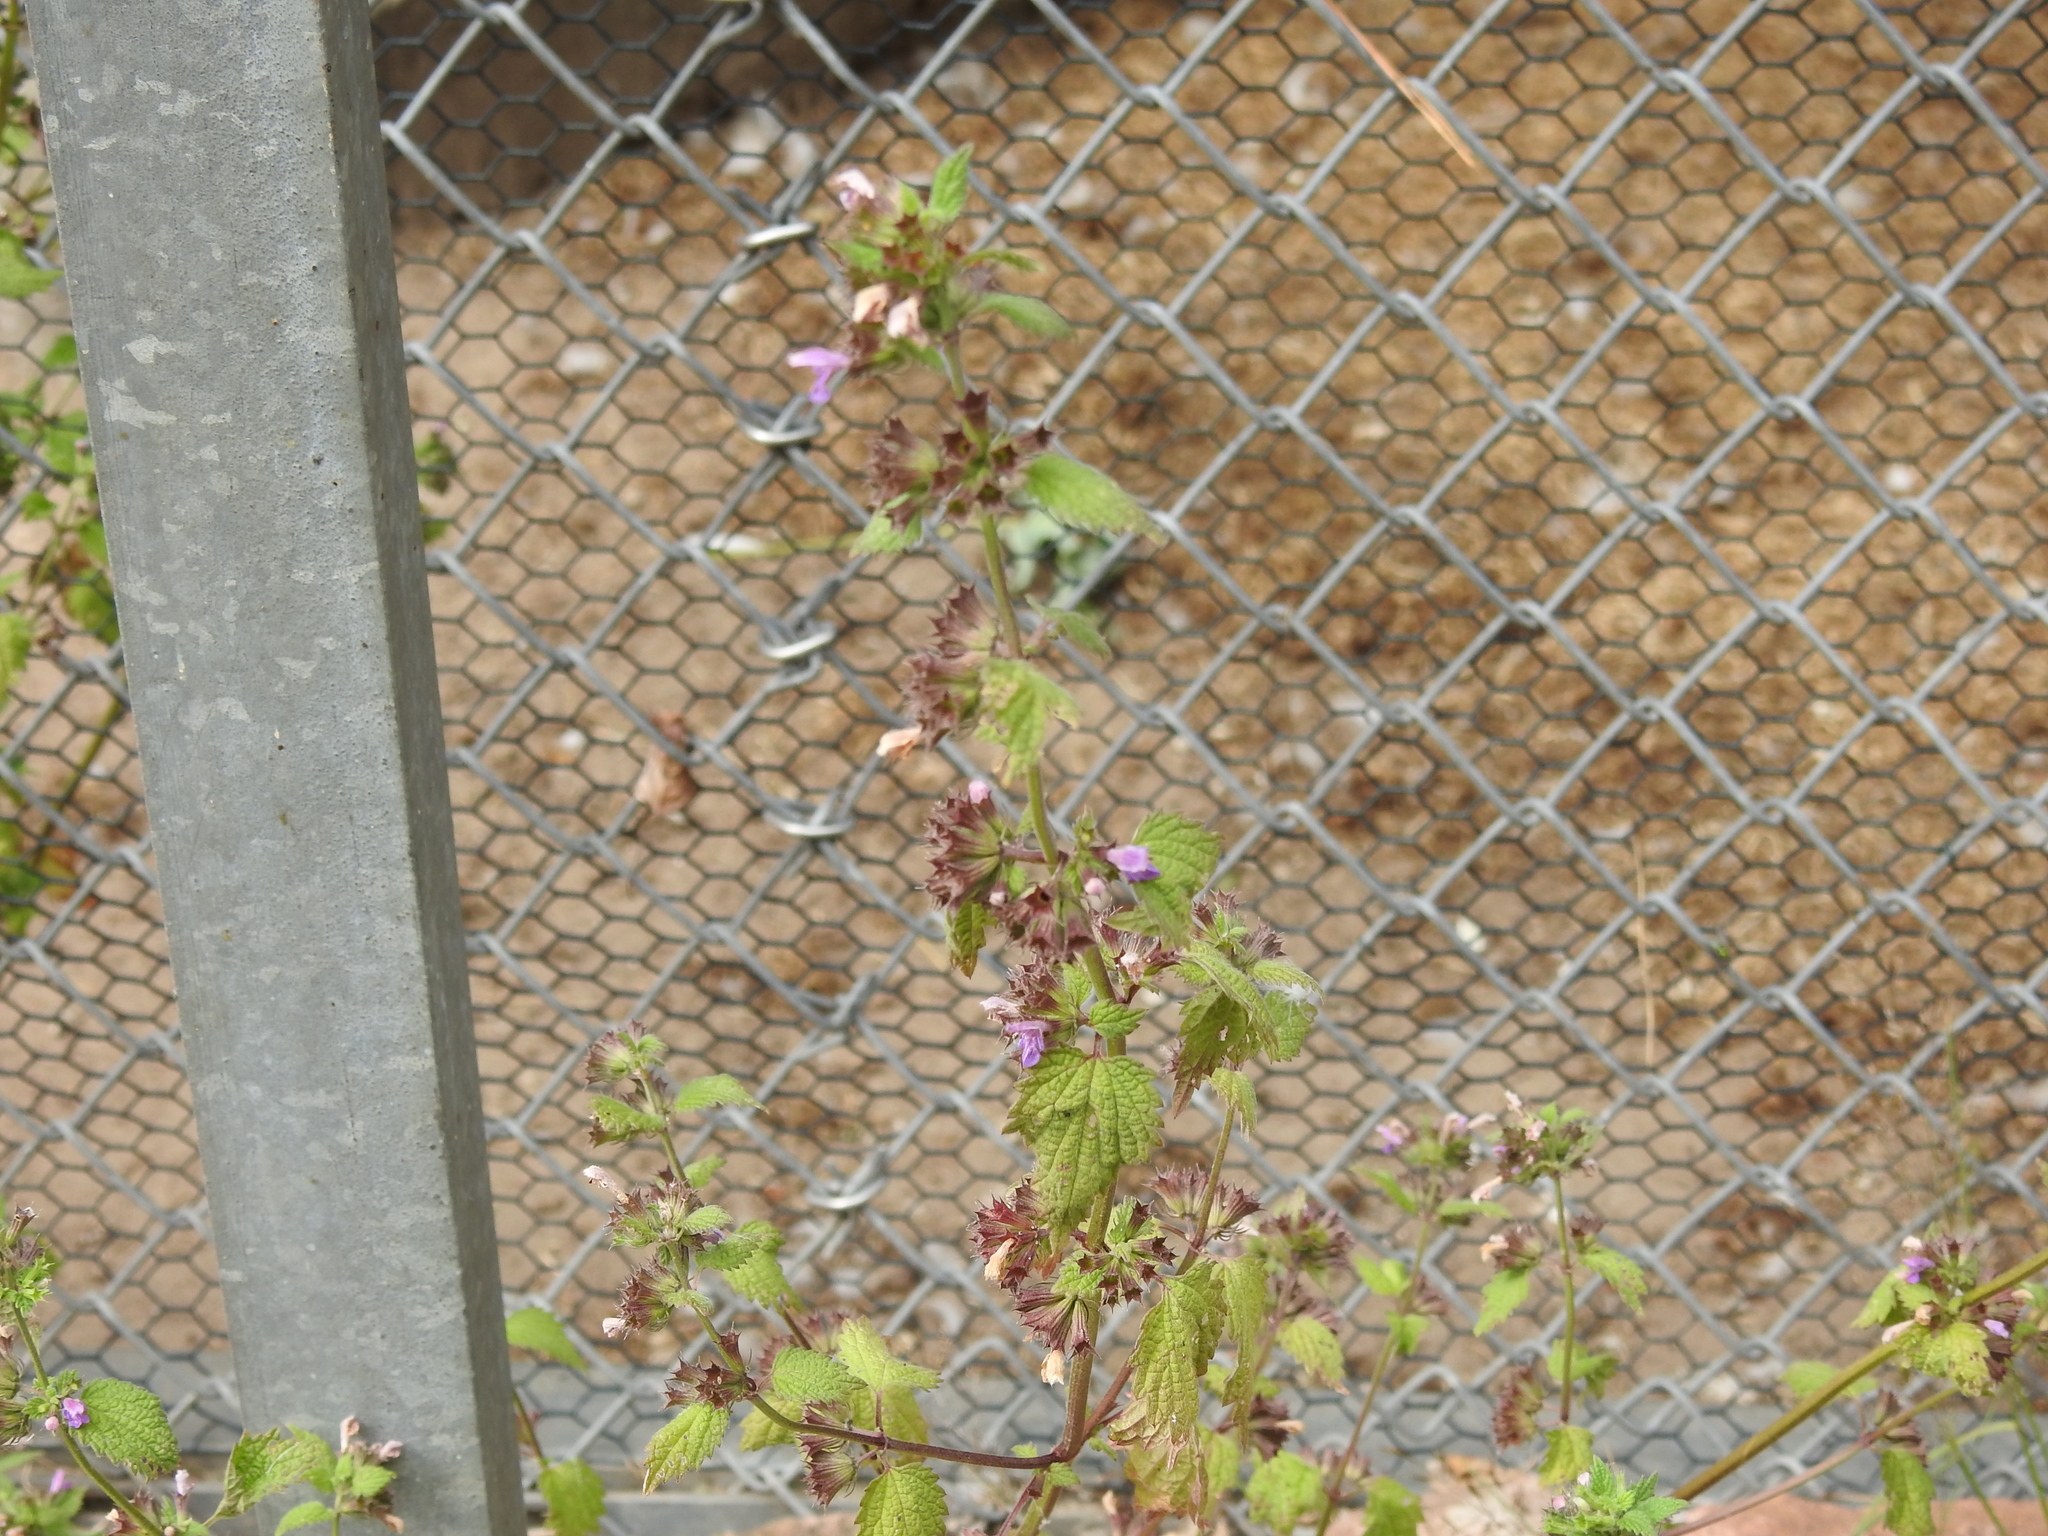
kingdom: Plantae
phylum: Tracheophyta
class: Magnoliopsida
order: Lamiales
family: Lamiaceae
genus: Ballota
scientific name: Ballota nigra
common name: Black horehound
